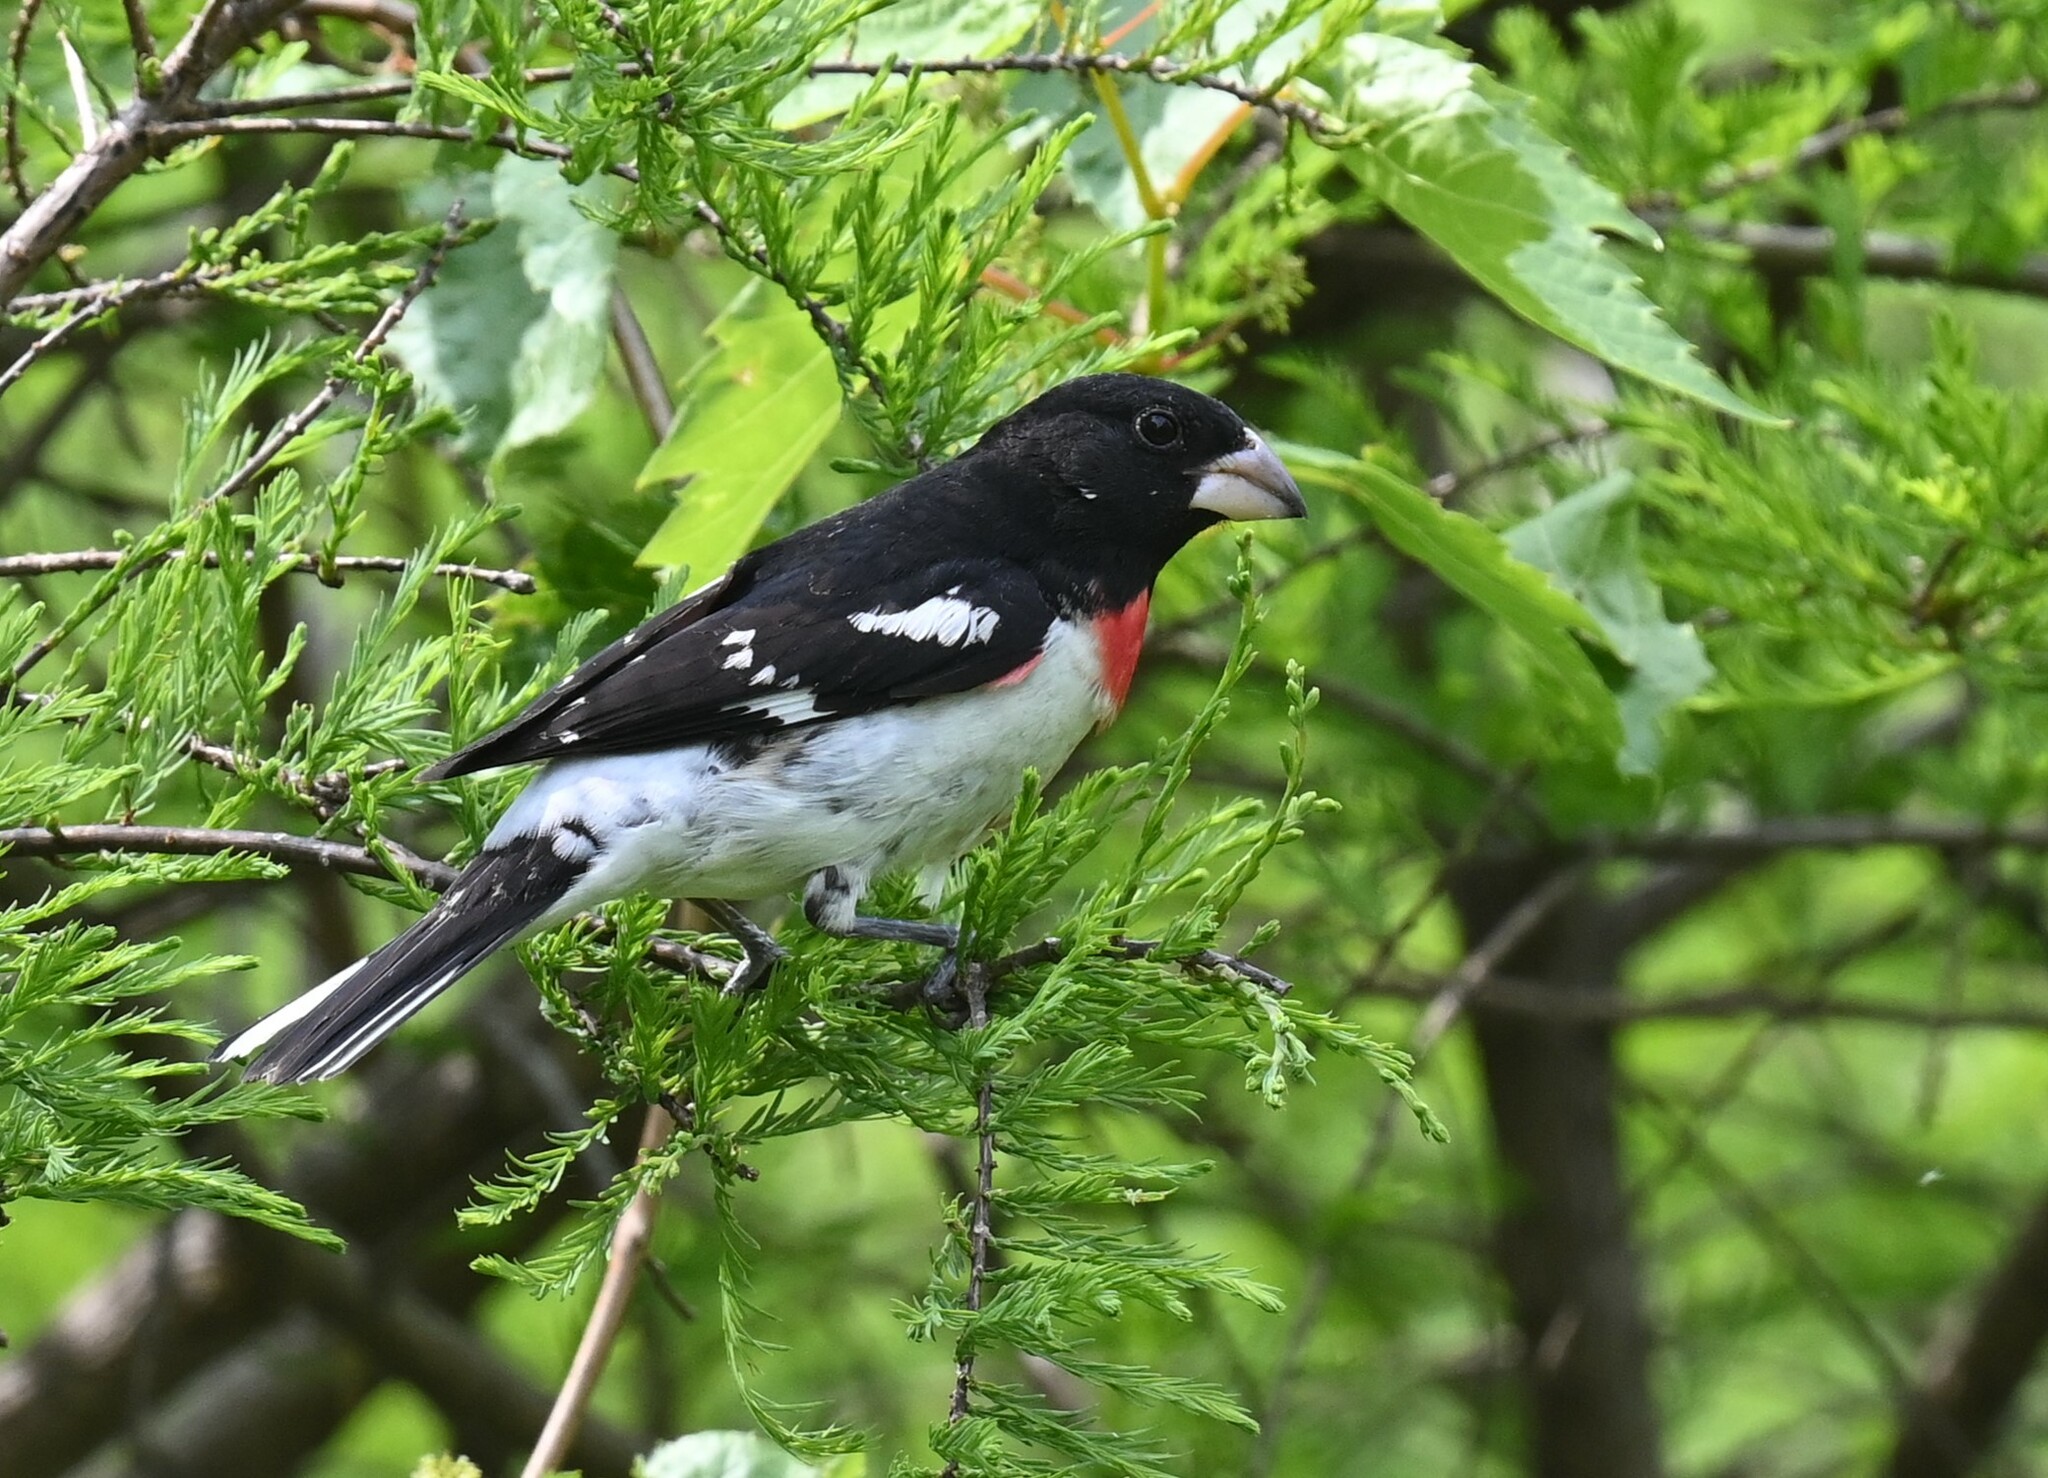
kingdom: Animalia
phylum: Chordata
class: Aves
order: Passeriformes
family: Cardinalidae
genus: Pheucticus
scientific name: Pheucticus ludovicianus
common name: Rose-breasted grosbeak
